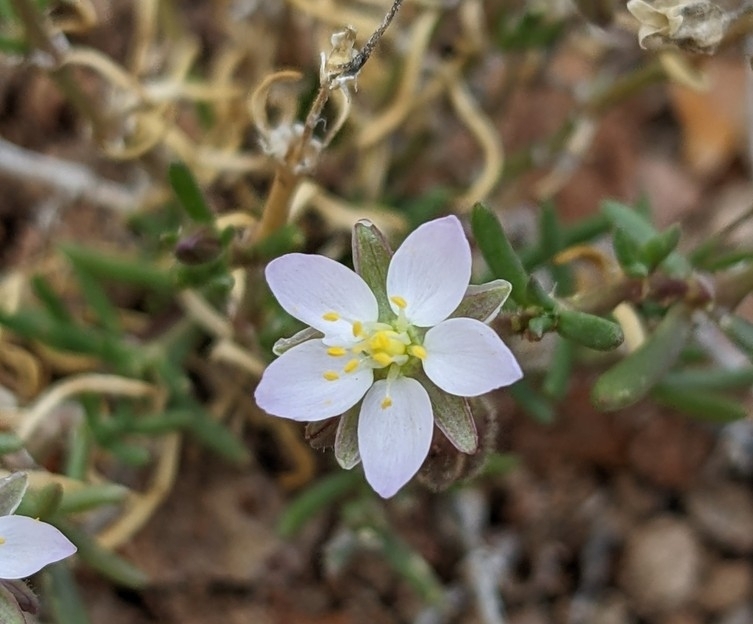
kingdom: Plantae
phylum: Tracheophyta
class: Magnoliopsida
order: Caryophyllales
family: Caryophyllaceae
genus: Spergularia
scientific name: Spergularia media
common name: Greater sea-spurrey
